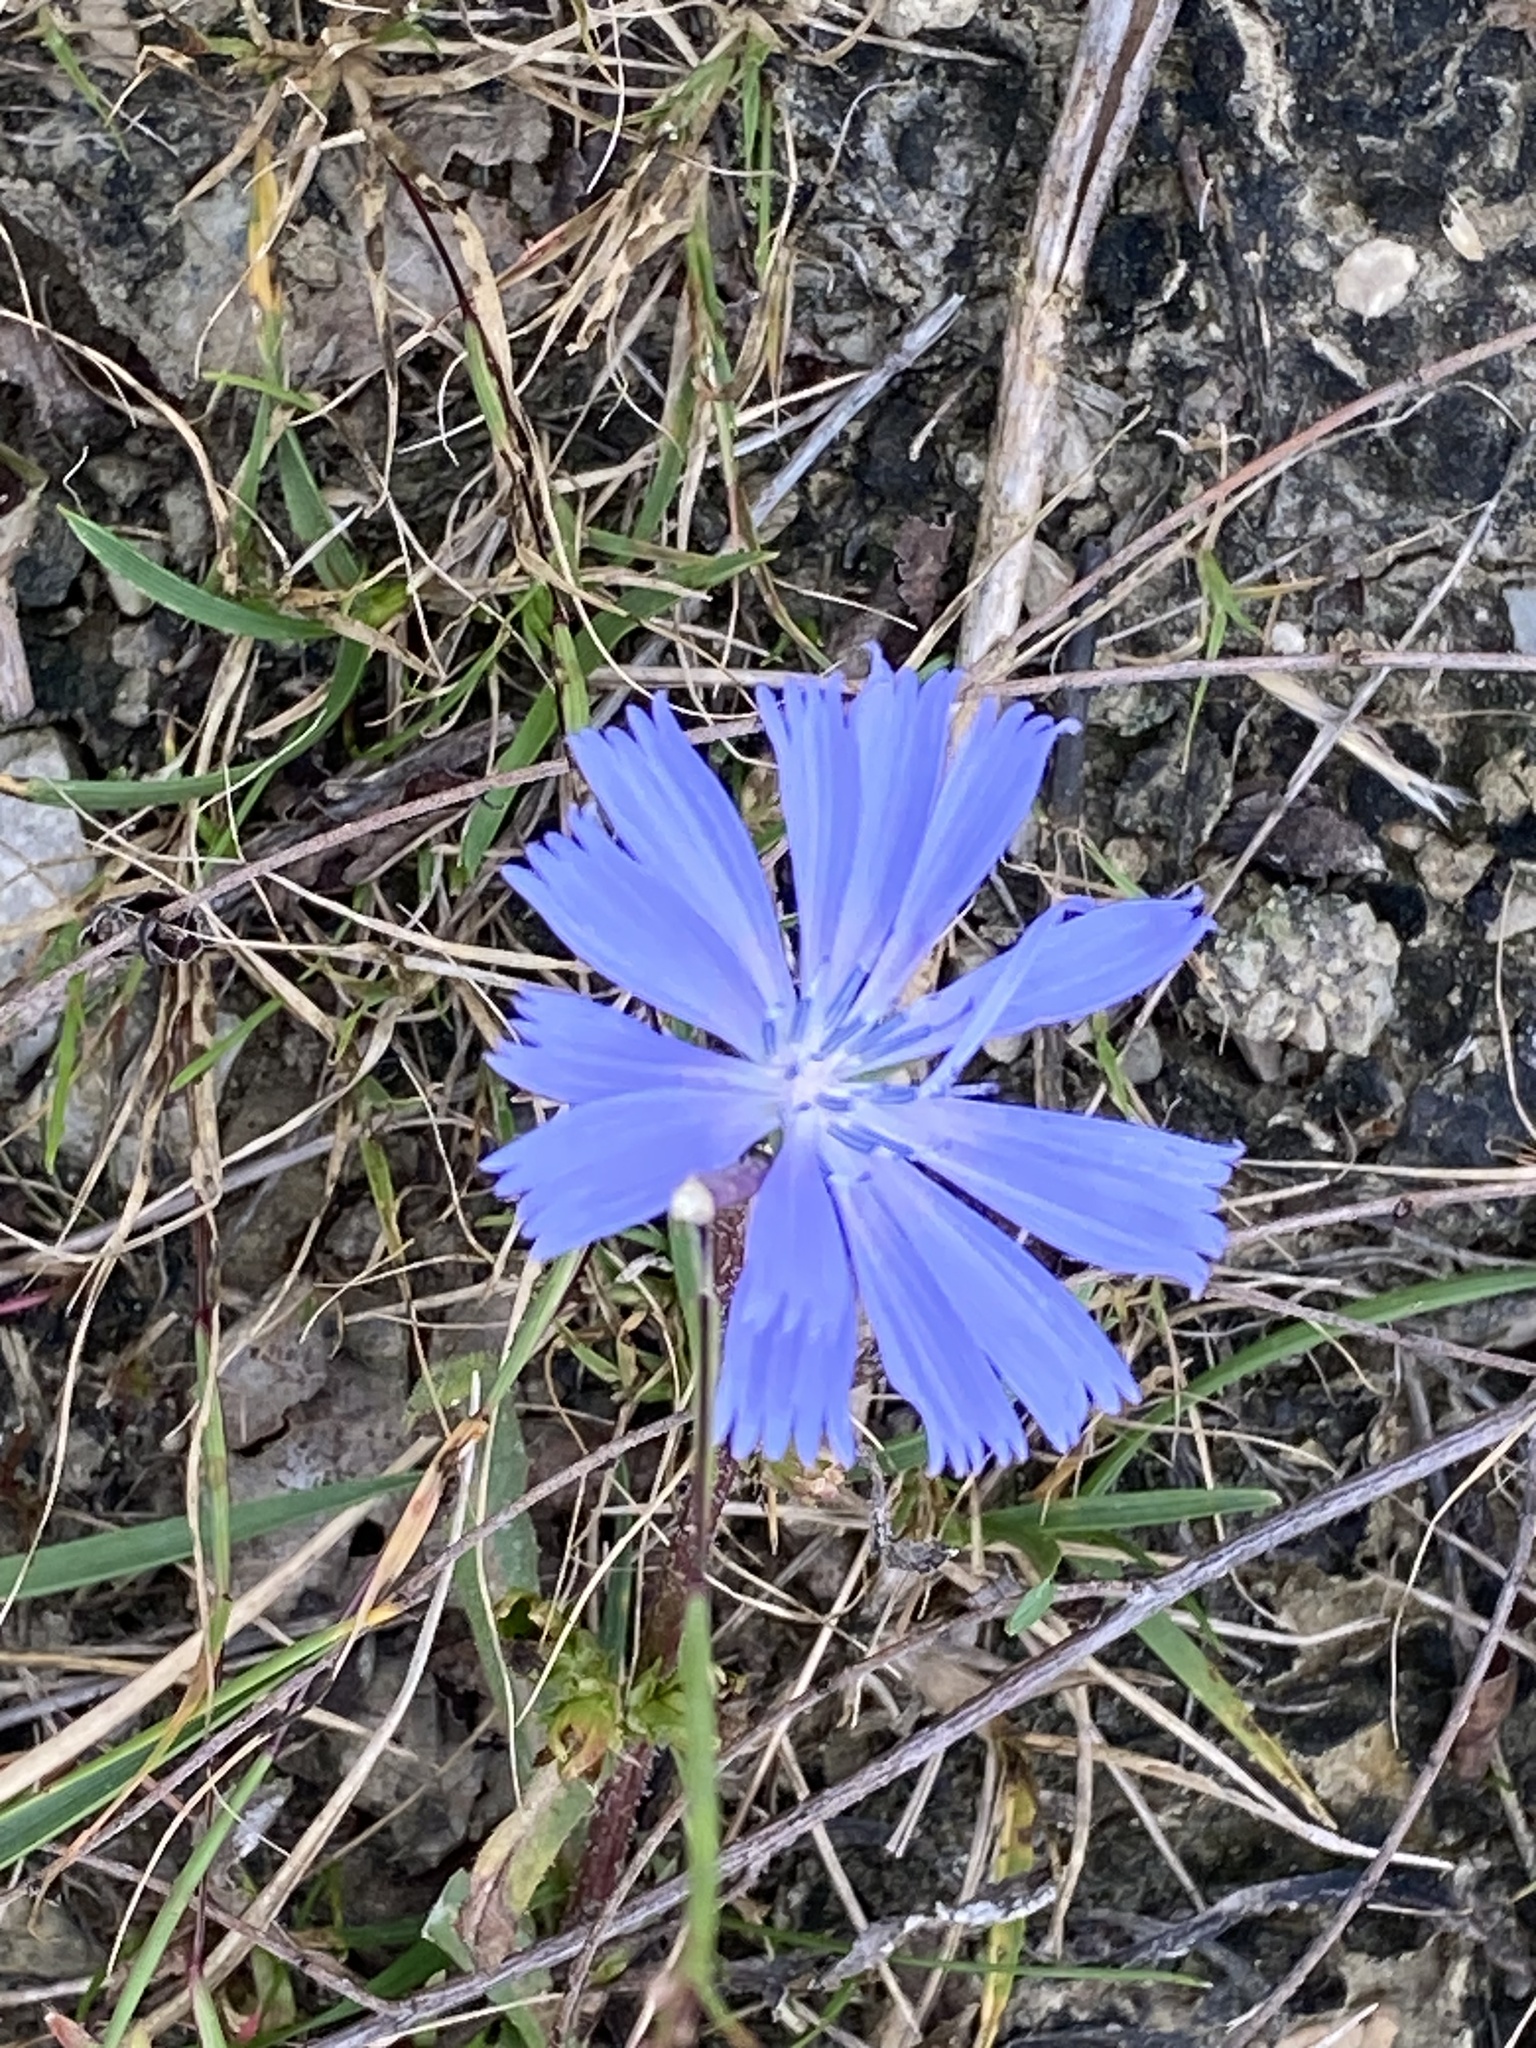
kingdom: Plantae
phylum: Tracheophyta
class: Magnoliopsida
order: Asterales
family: Asteraceae
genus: Cichorium
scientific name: Cichorium intybus
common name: Chicory
